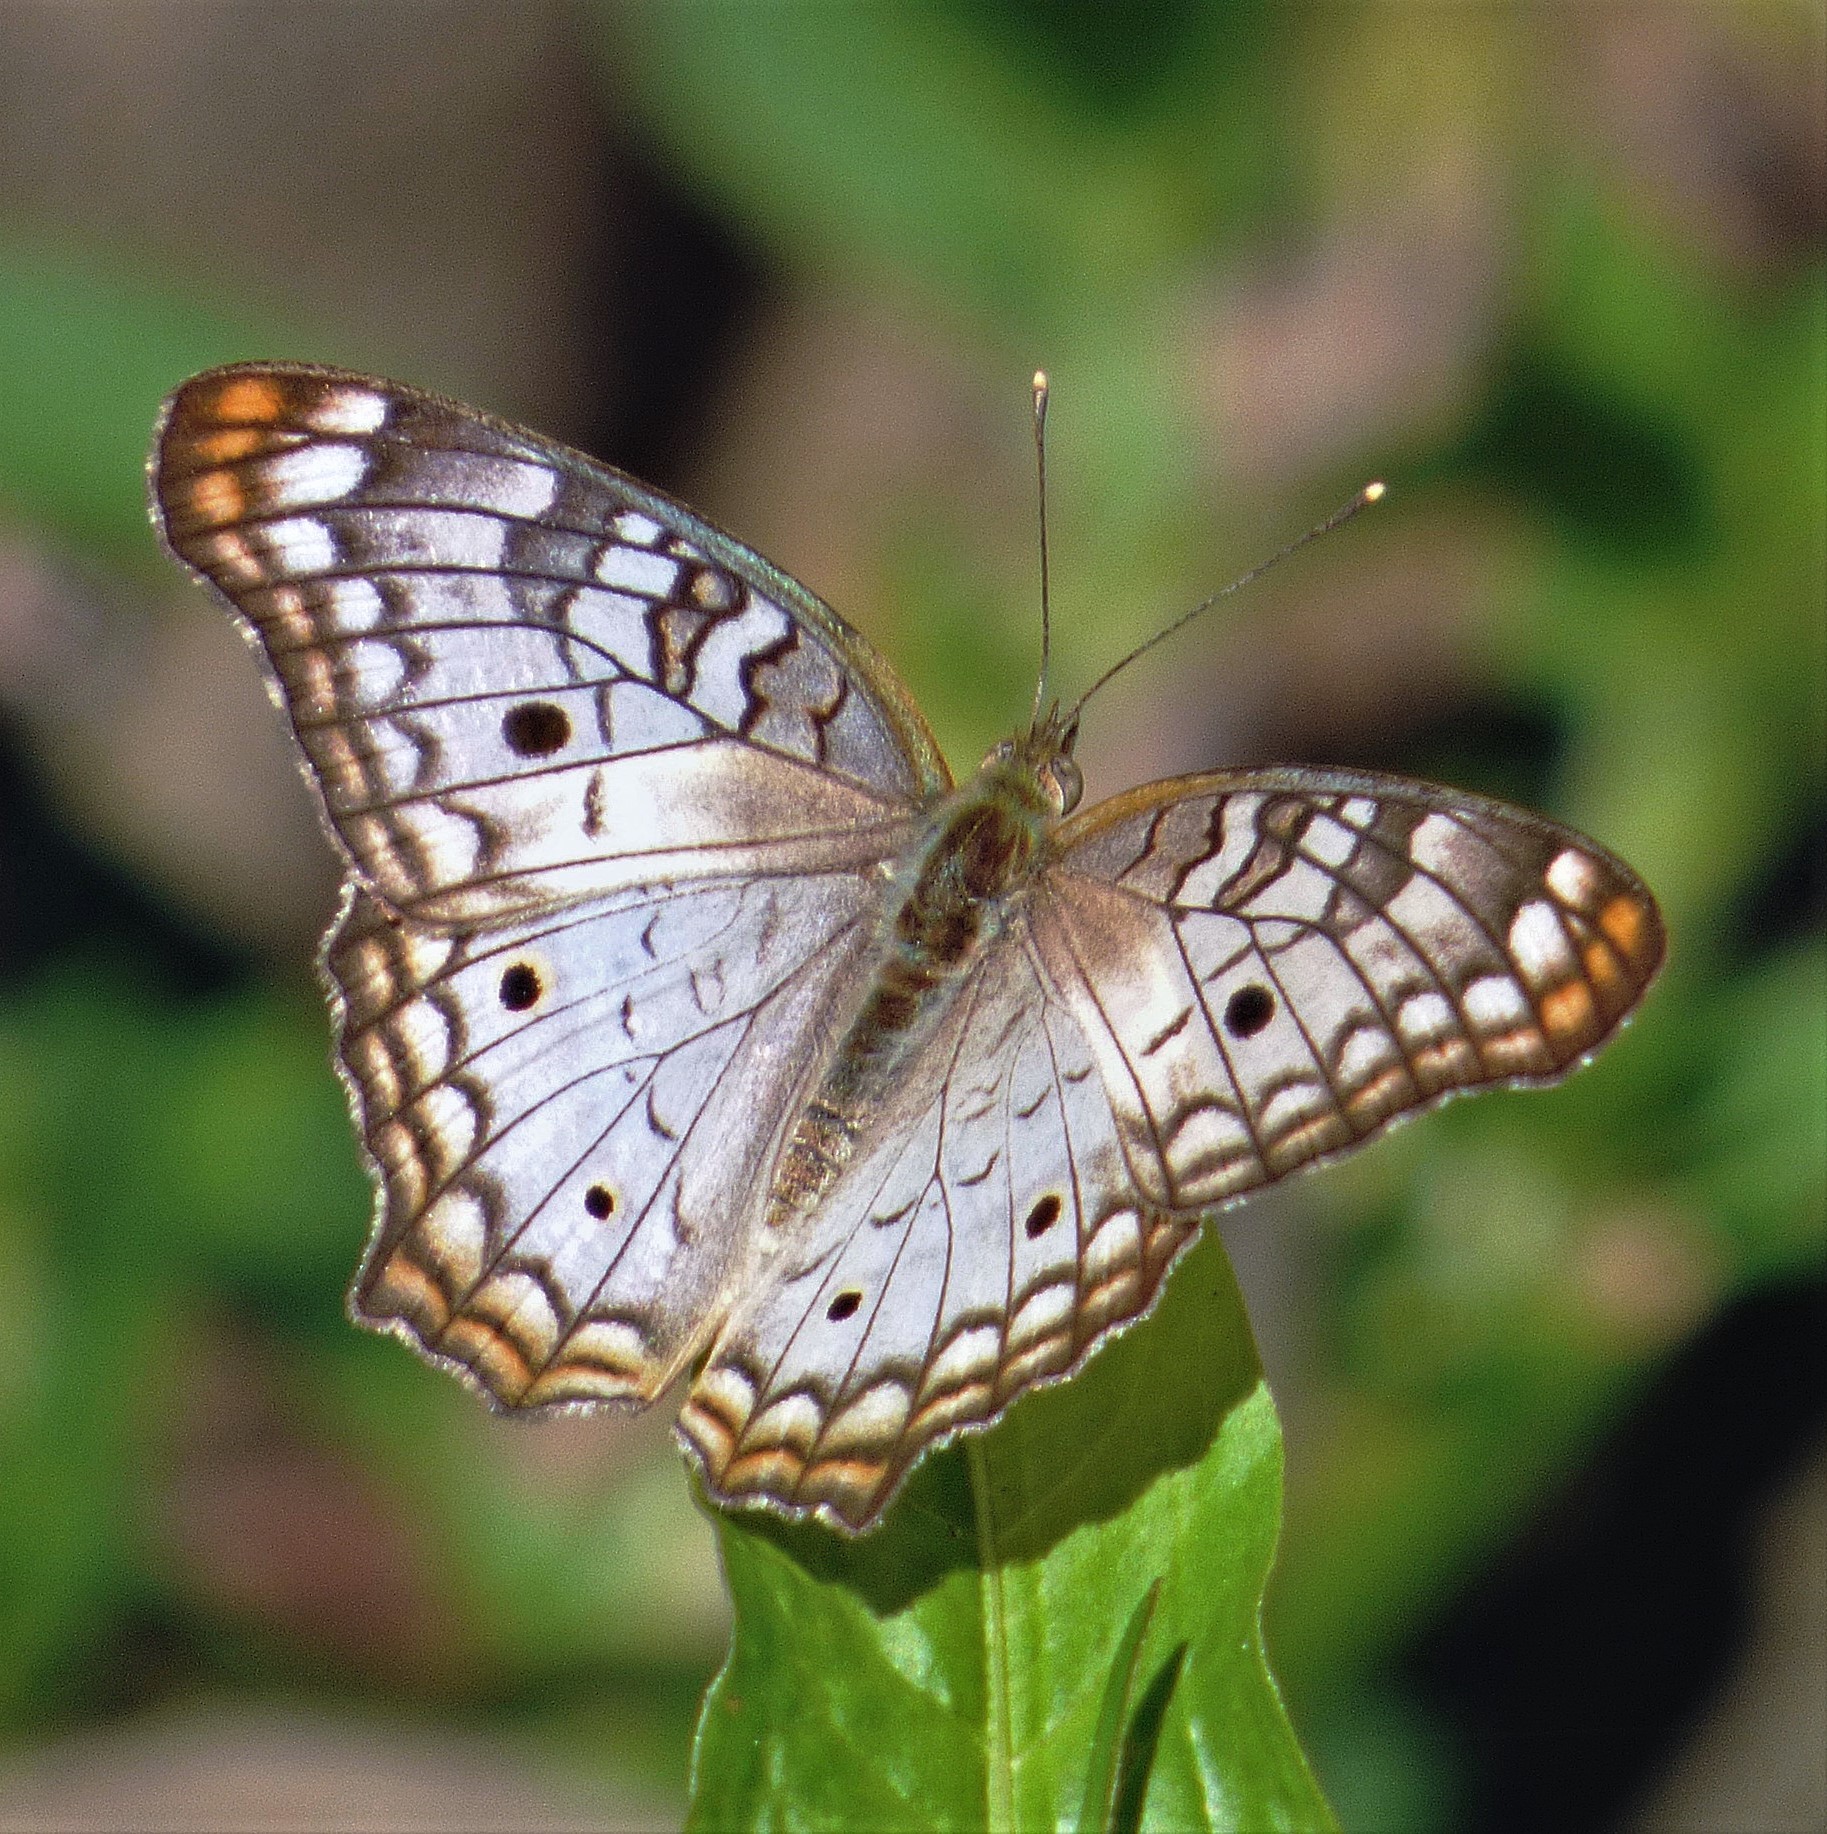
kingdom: Animalia
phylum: Arthropoda
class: Insecta
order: Lepidoptera
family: Nymphalidae
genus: Anartia
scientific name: Anartia jatrophae
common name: White peacock
